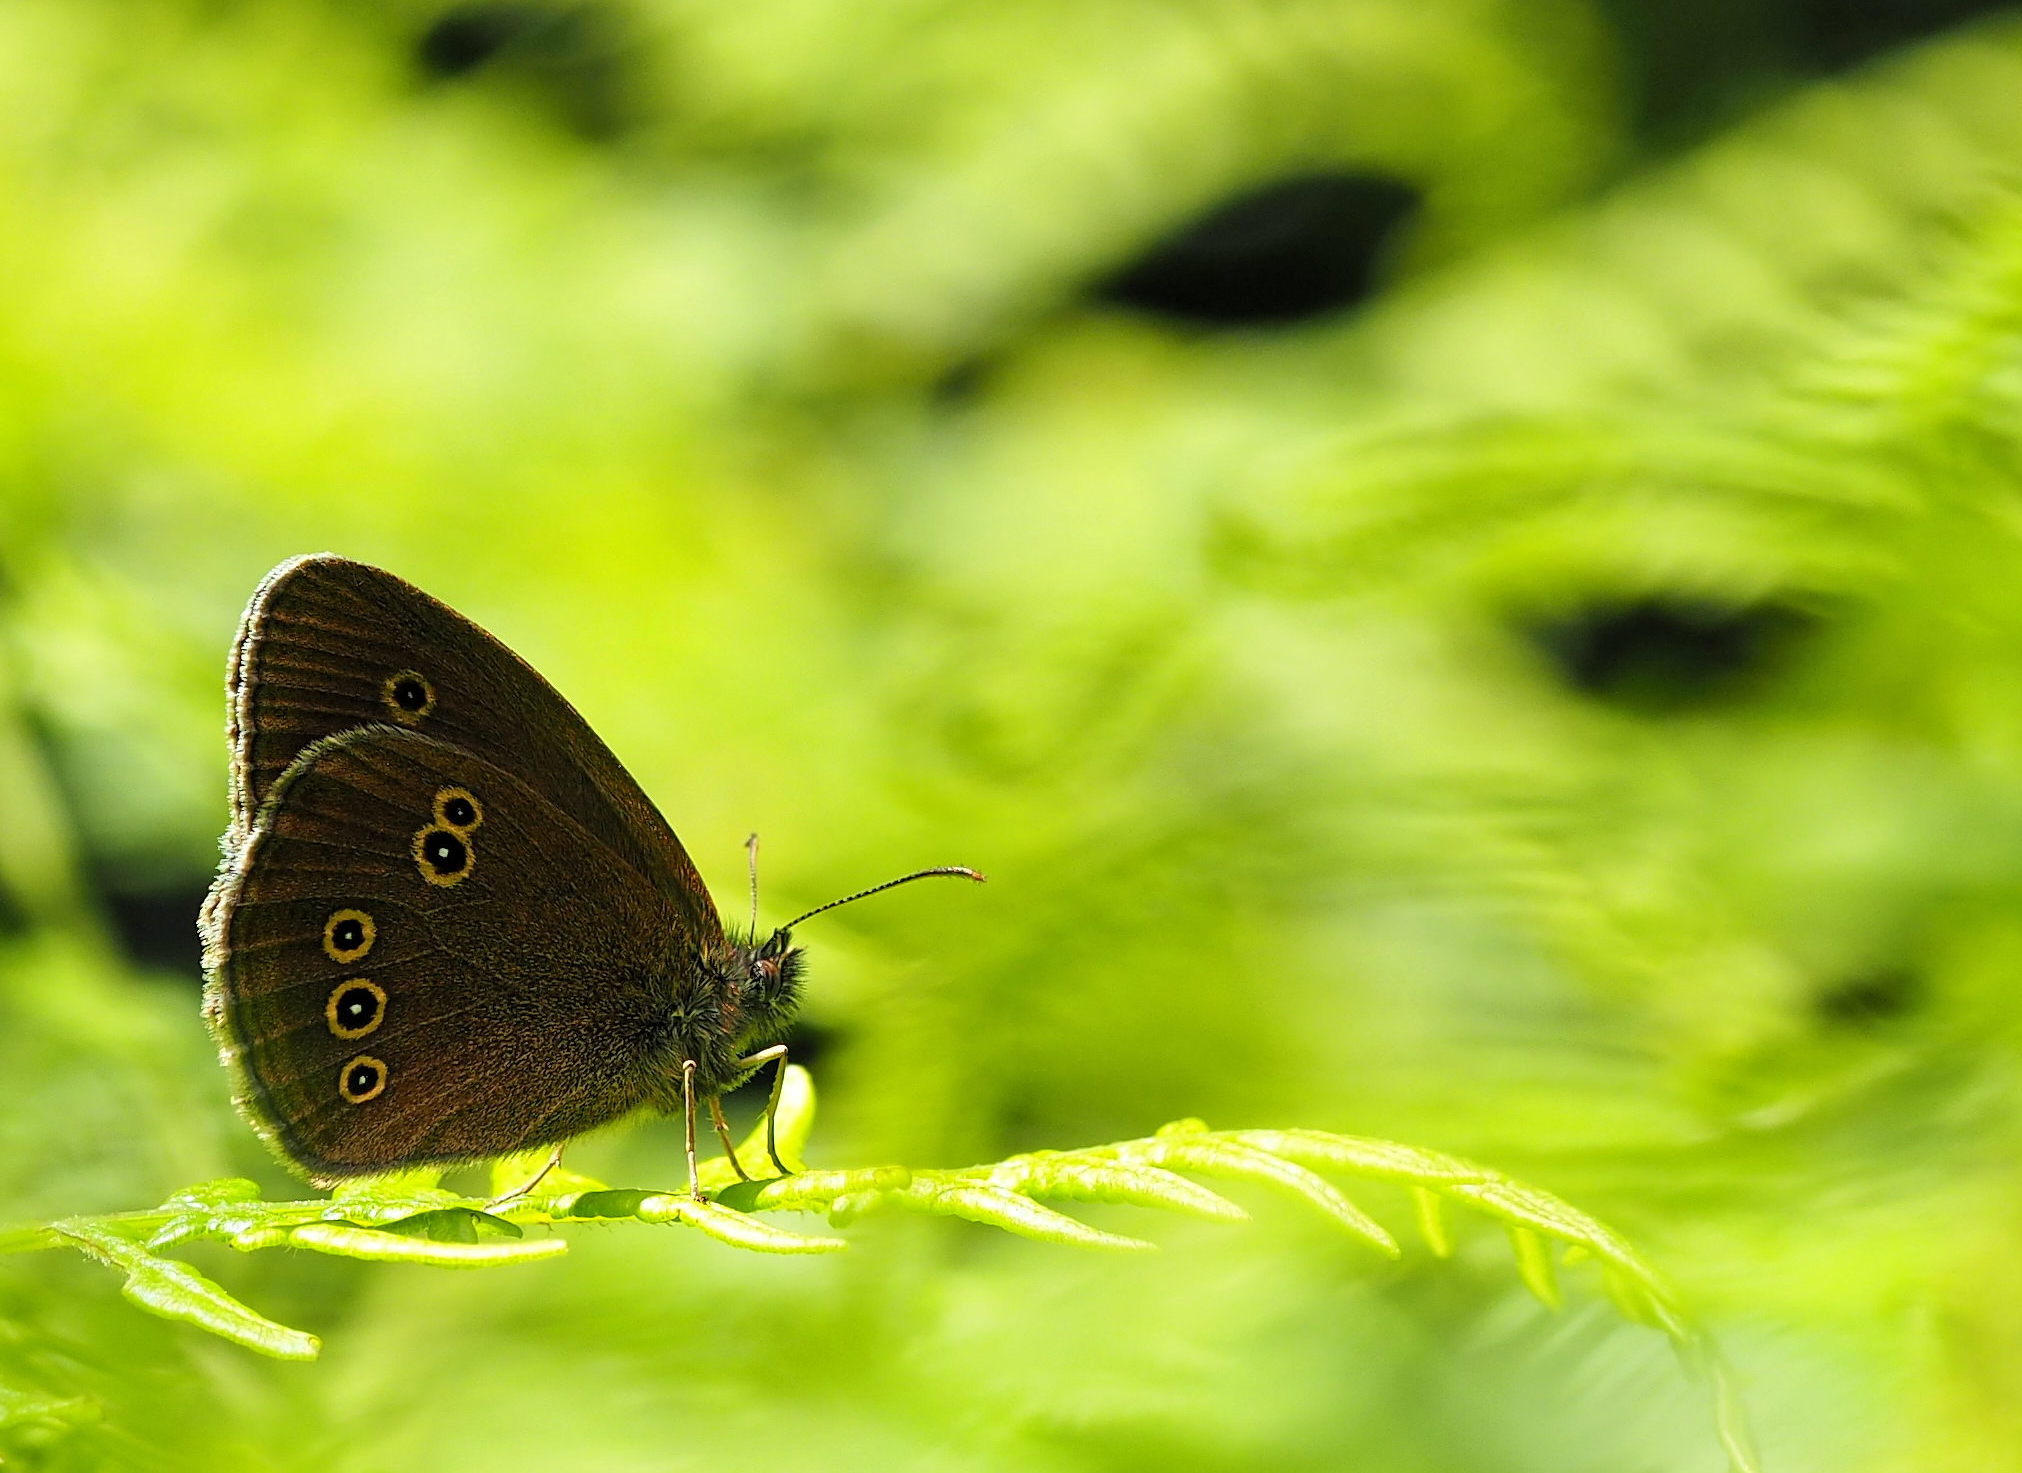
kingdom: Animalia
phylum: Arthropoda
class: Insecta
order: Lepidoptera
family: Nymphalidae
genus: Aphantopus
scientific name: Aphantopus hyperantus
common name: Ringlet
